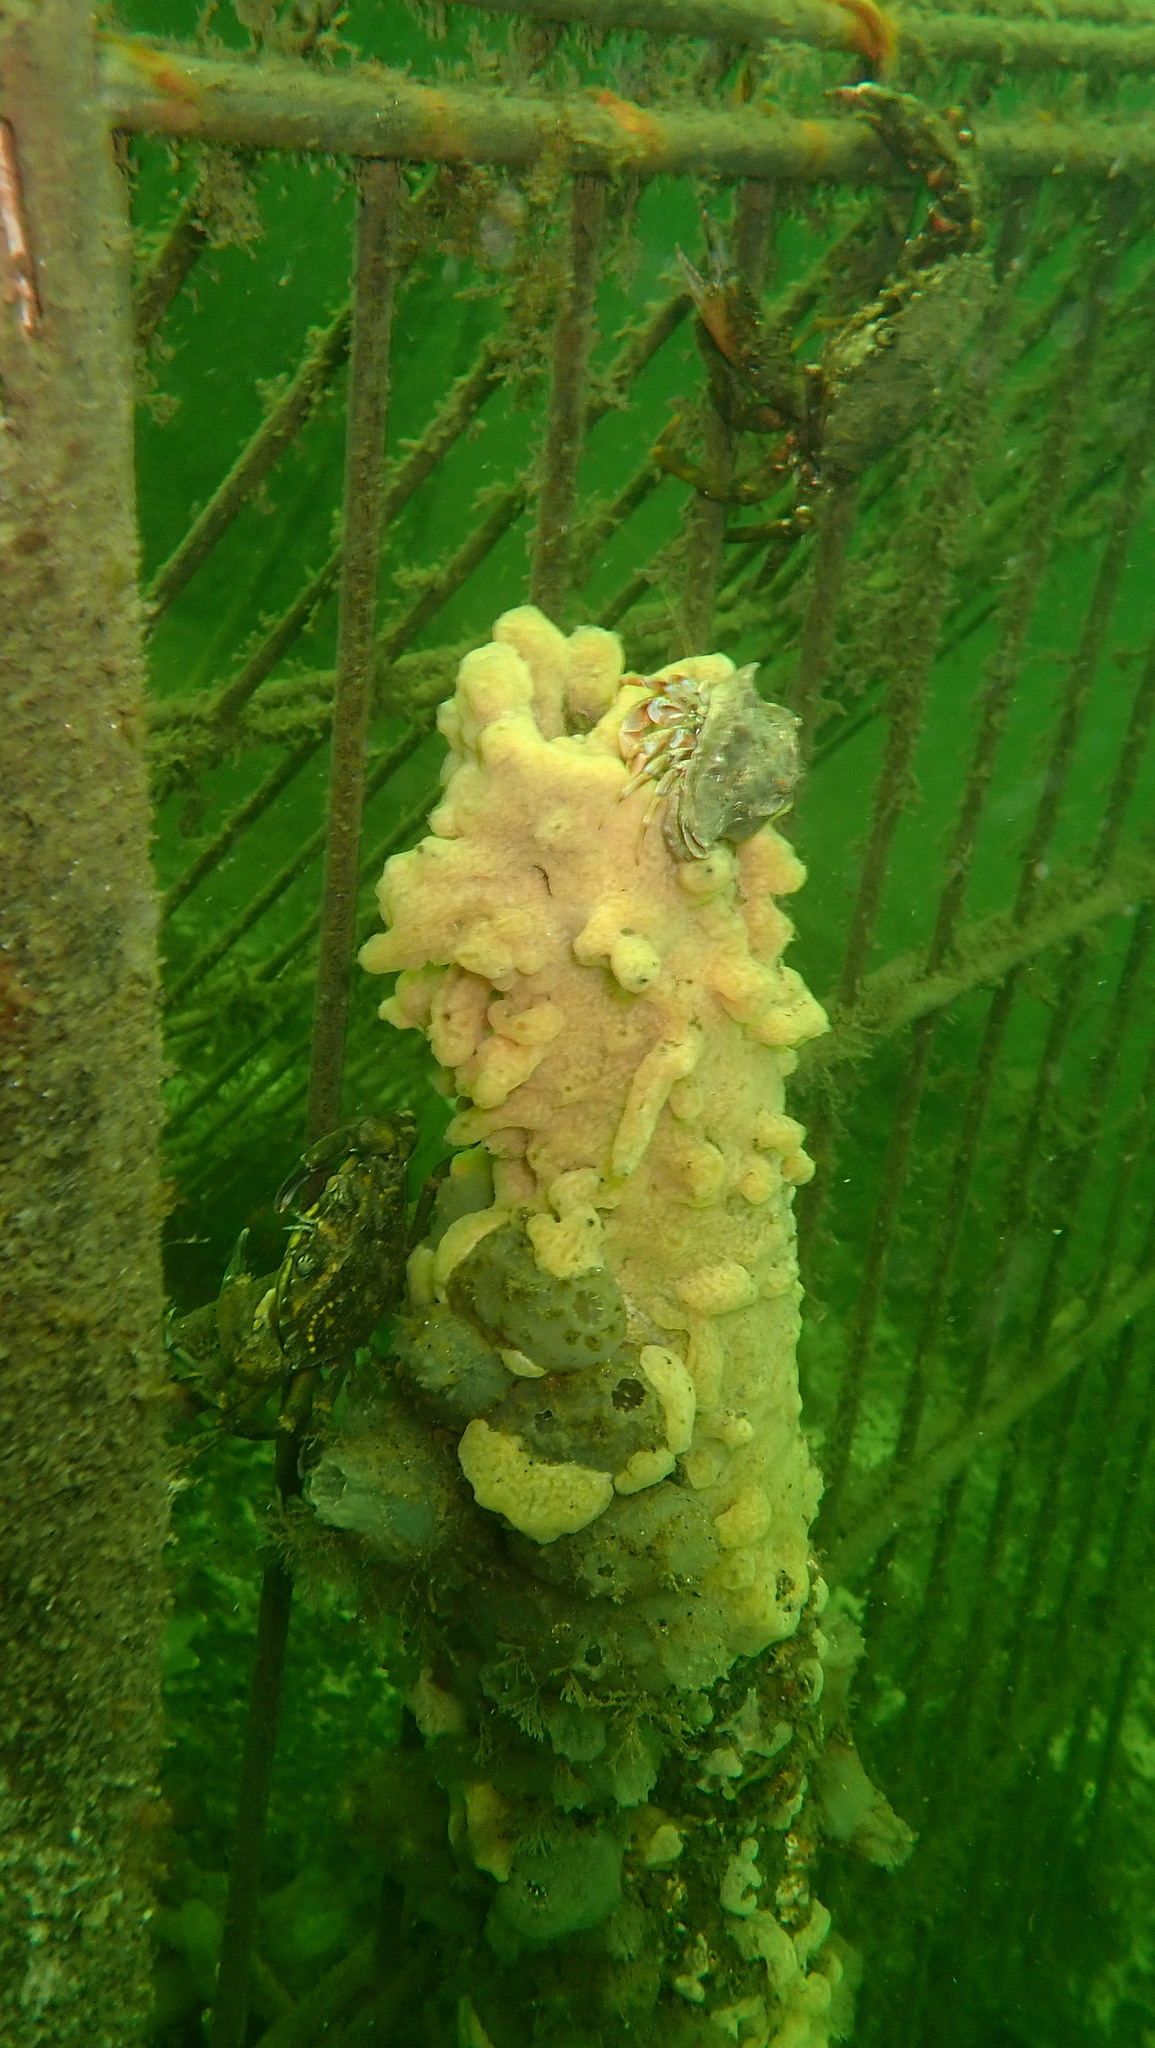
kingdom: Animalia
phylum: Chordata
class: Ascidiacea
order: Aplousobranchia
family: Didemnidae
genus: Didemnum
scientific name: Didemnum vexillum
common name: Compound sea squirt
